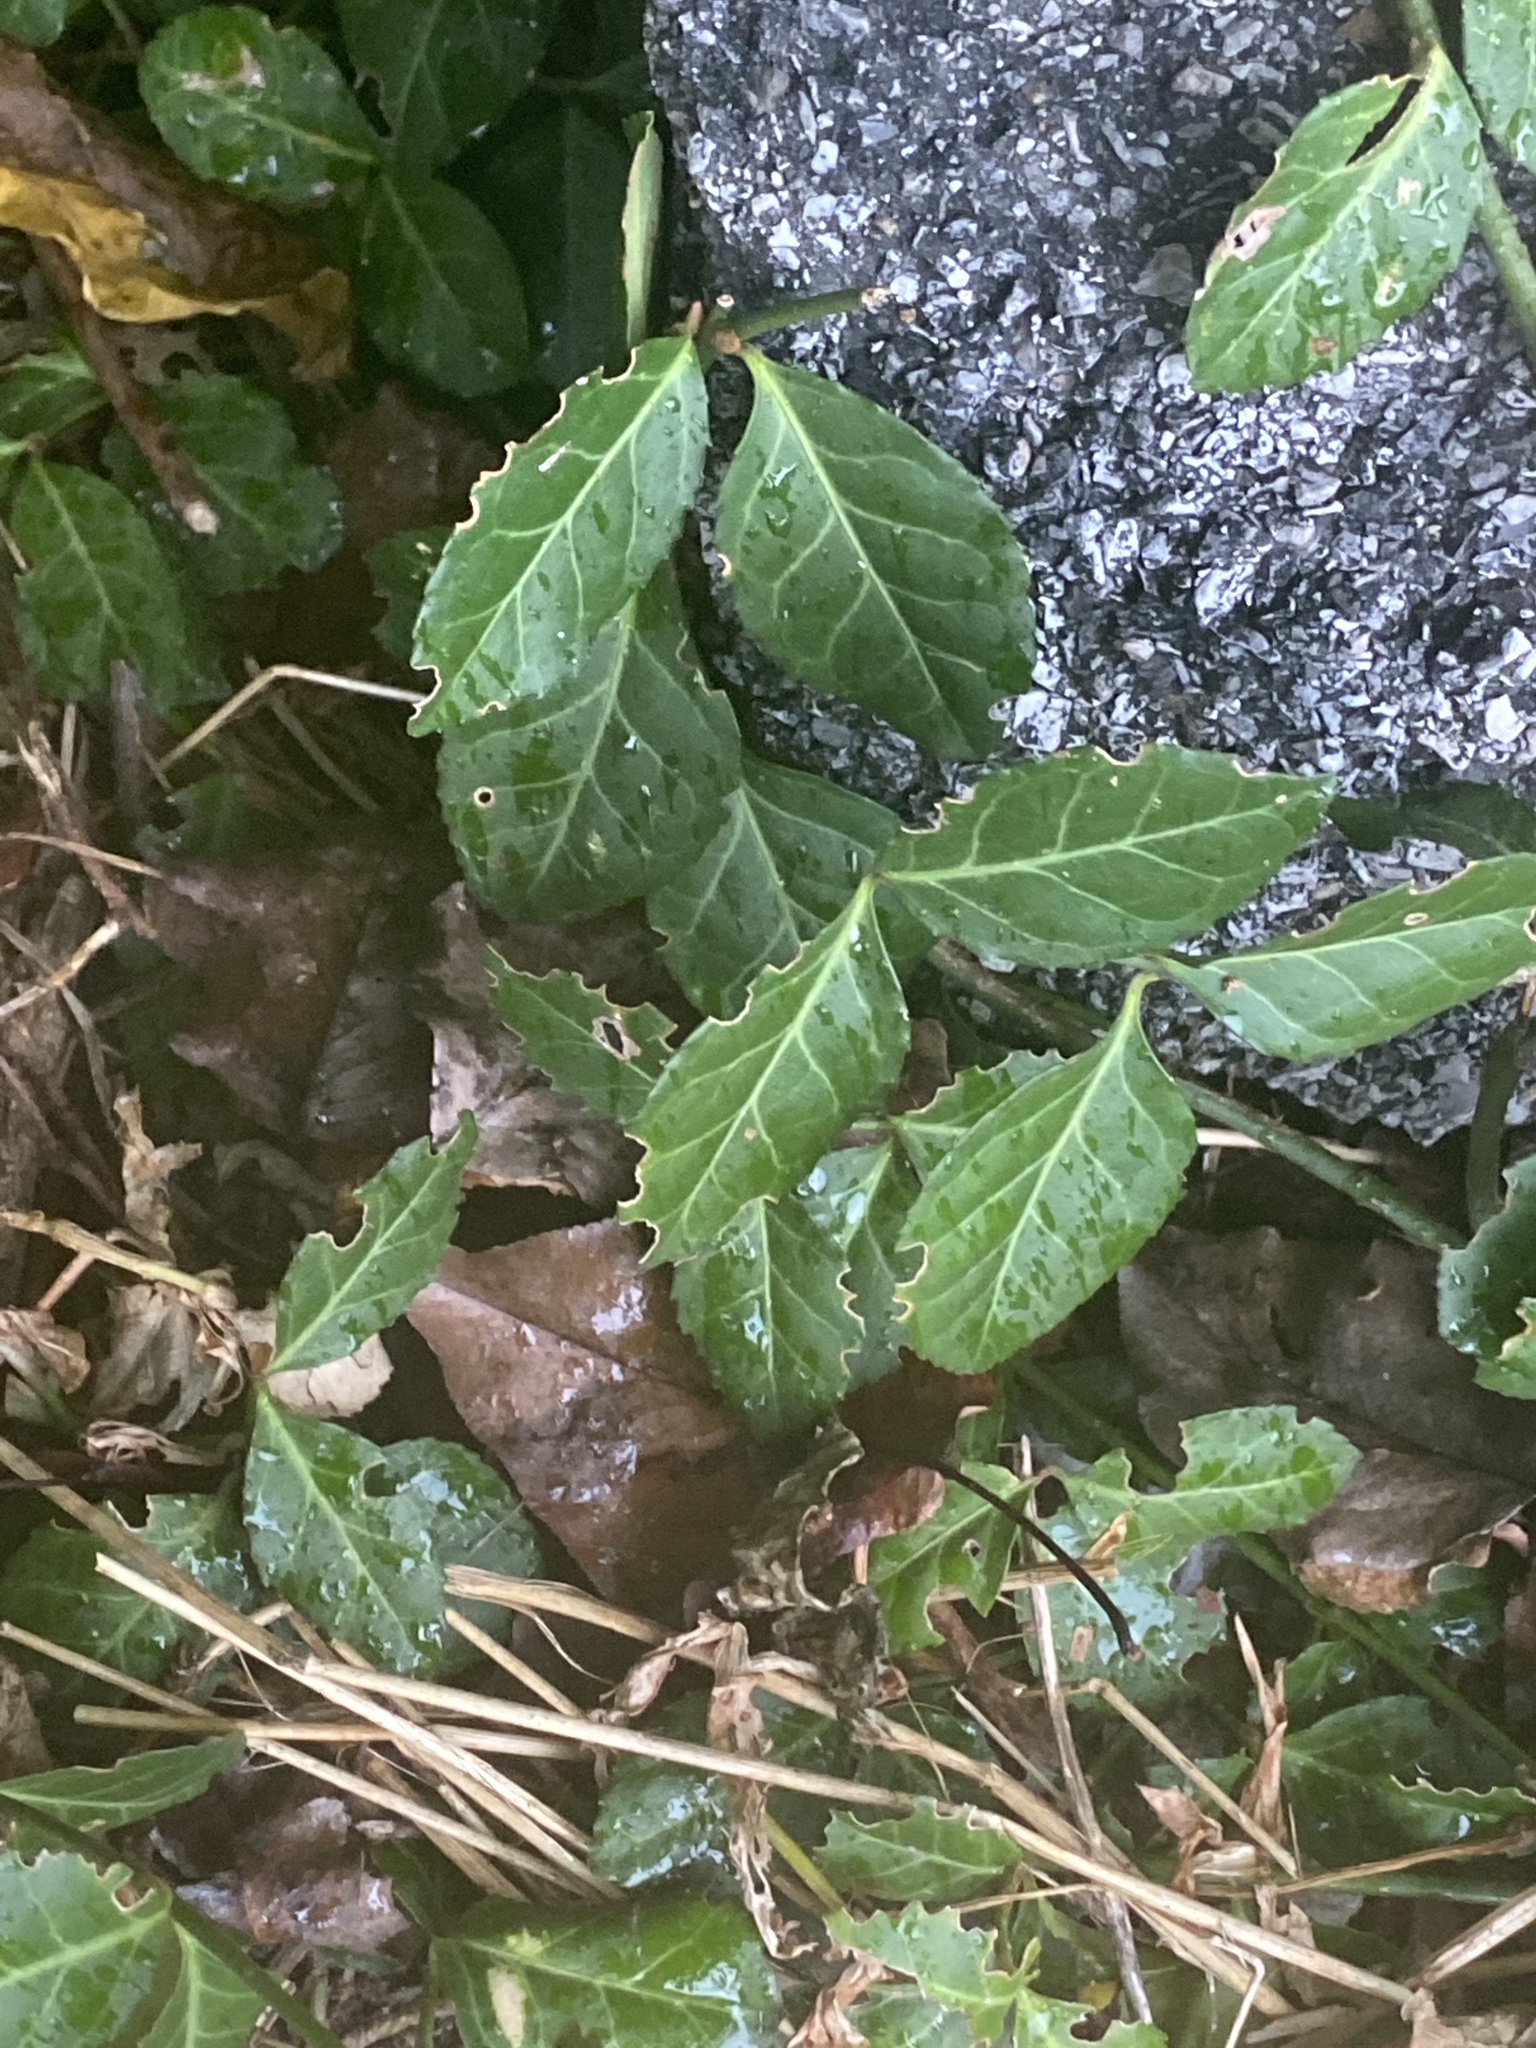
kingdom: Plantae
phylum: Tracheophyta
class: Magnoliopsida
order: Celastrales
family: Celastraceae
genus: Euonymus
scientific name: Euonymus fortunei
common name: Climbing euonymus
